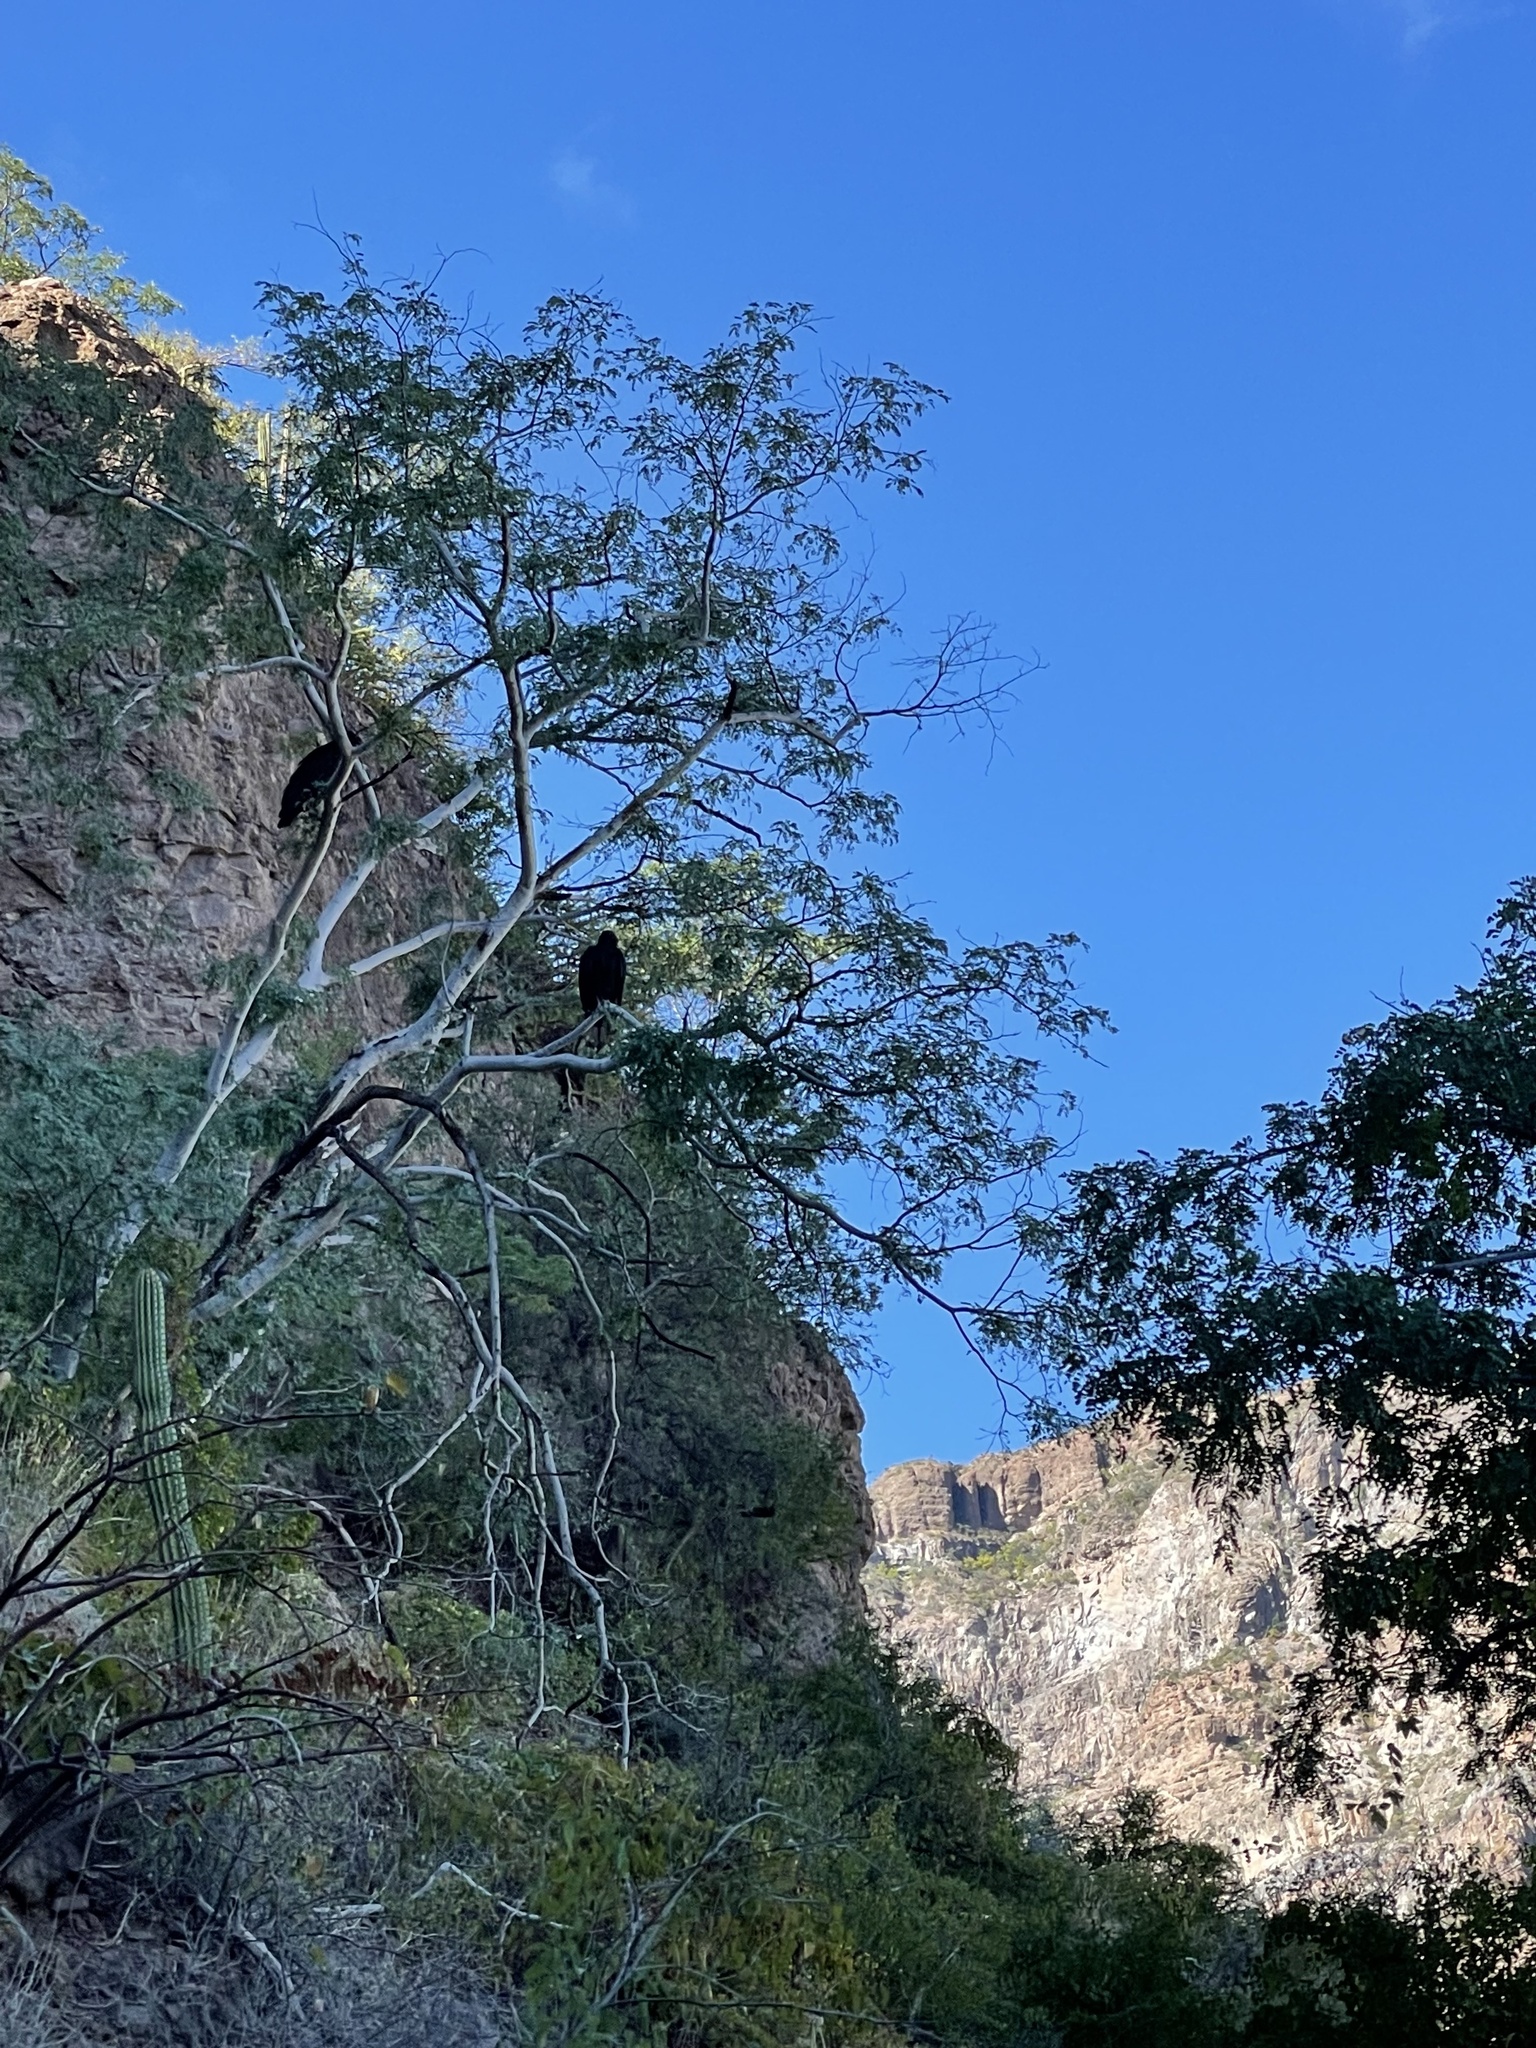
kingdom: Animalia
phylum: Chordata
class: Aves
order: Accipitriformes
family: Cathartidae
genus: Cathartes
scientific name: Cathartes aura
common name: Turkey vulture
